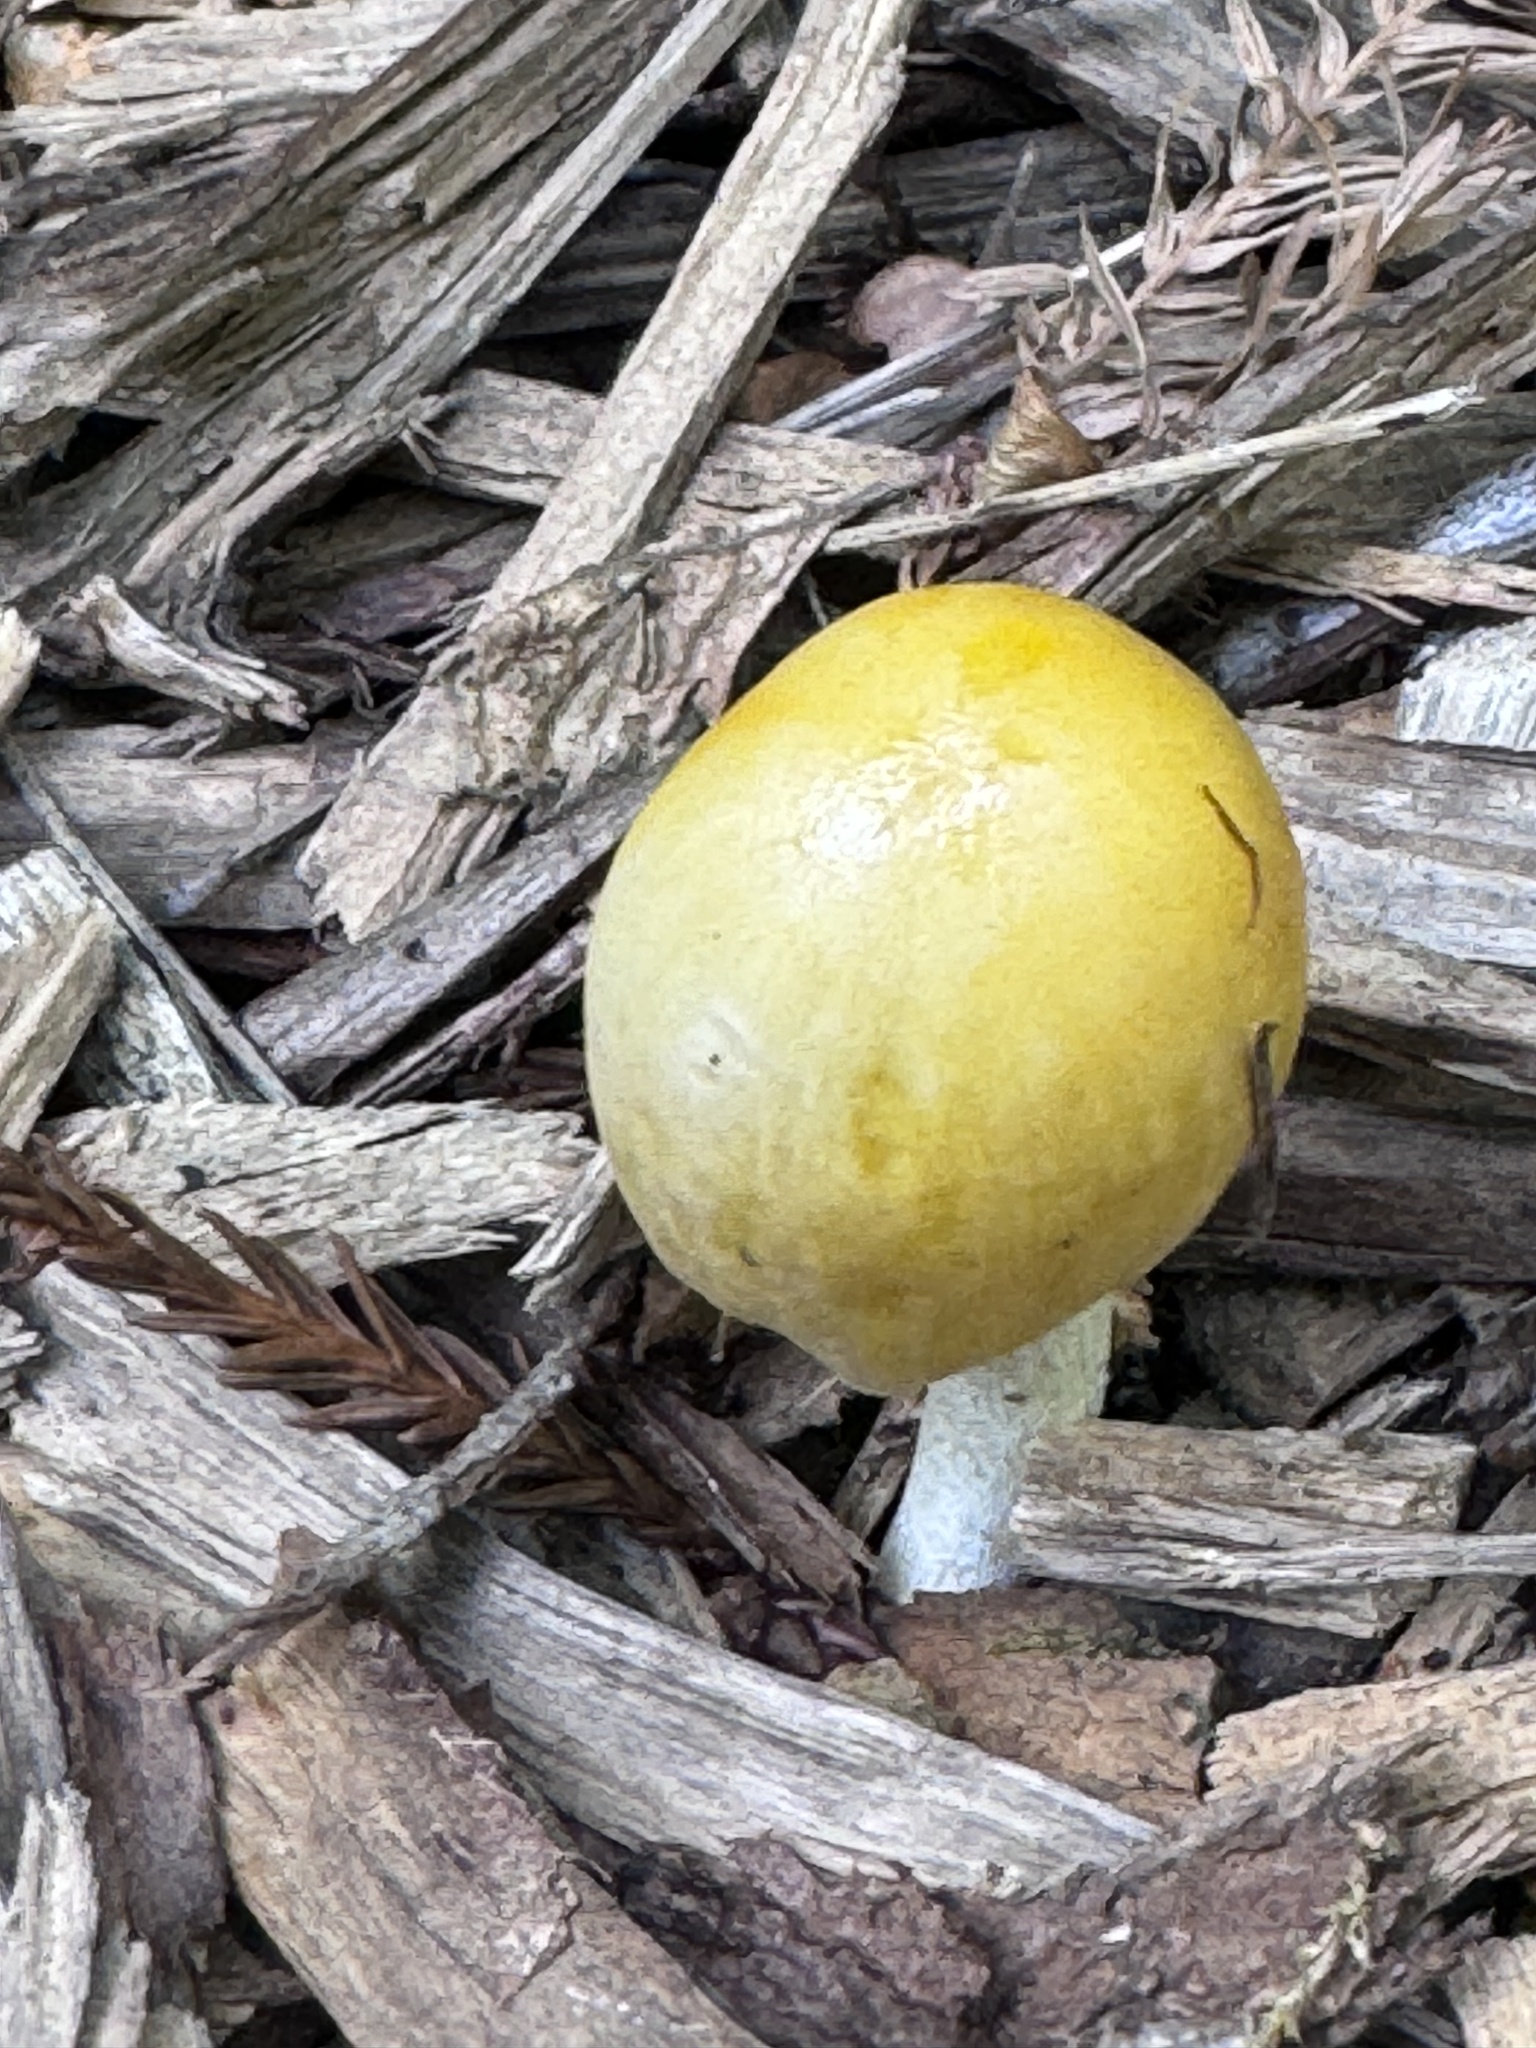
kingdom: Fungi
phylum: Basidiomycota
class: Agaricomycetes
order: Agaricales
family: Bolbitiaceae
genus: Bolbitius
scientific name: Bolbitius titubans
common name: Yellow fieldcap
